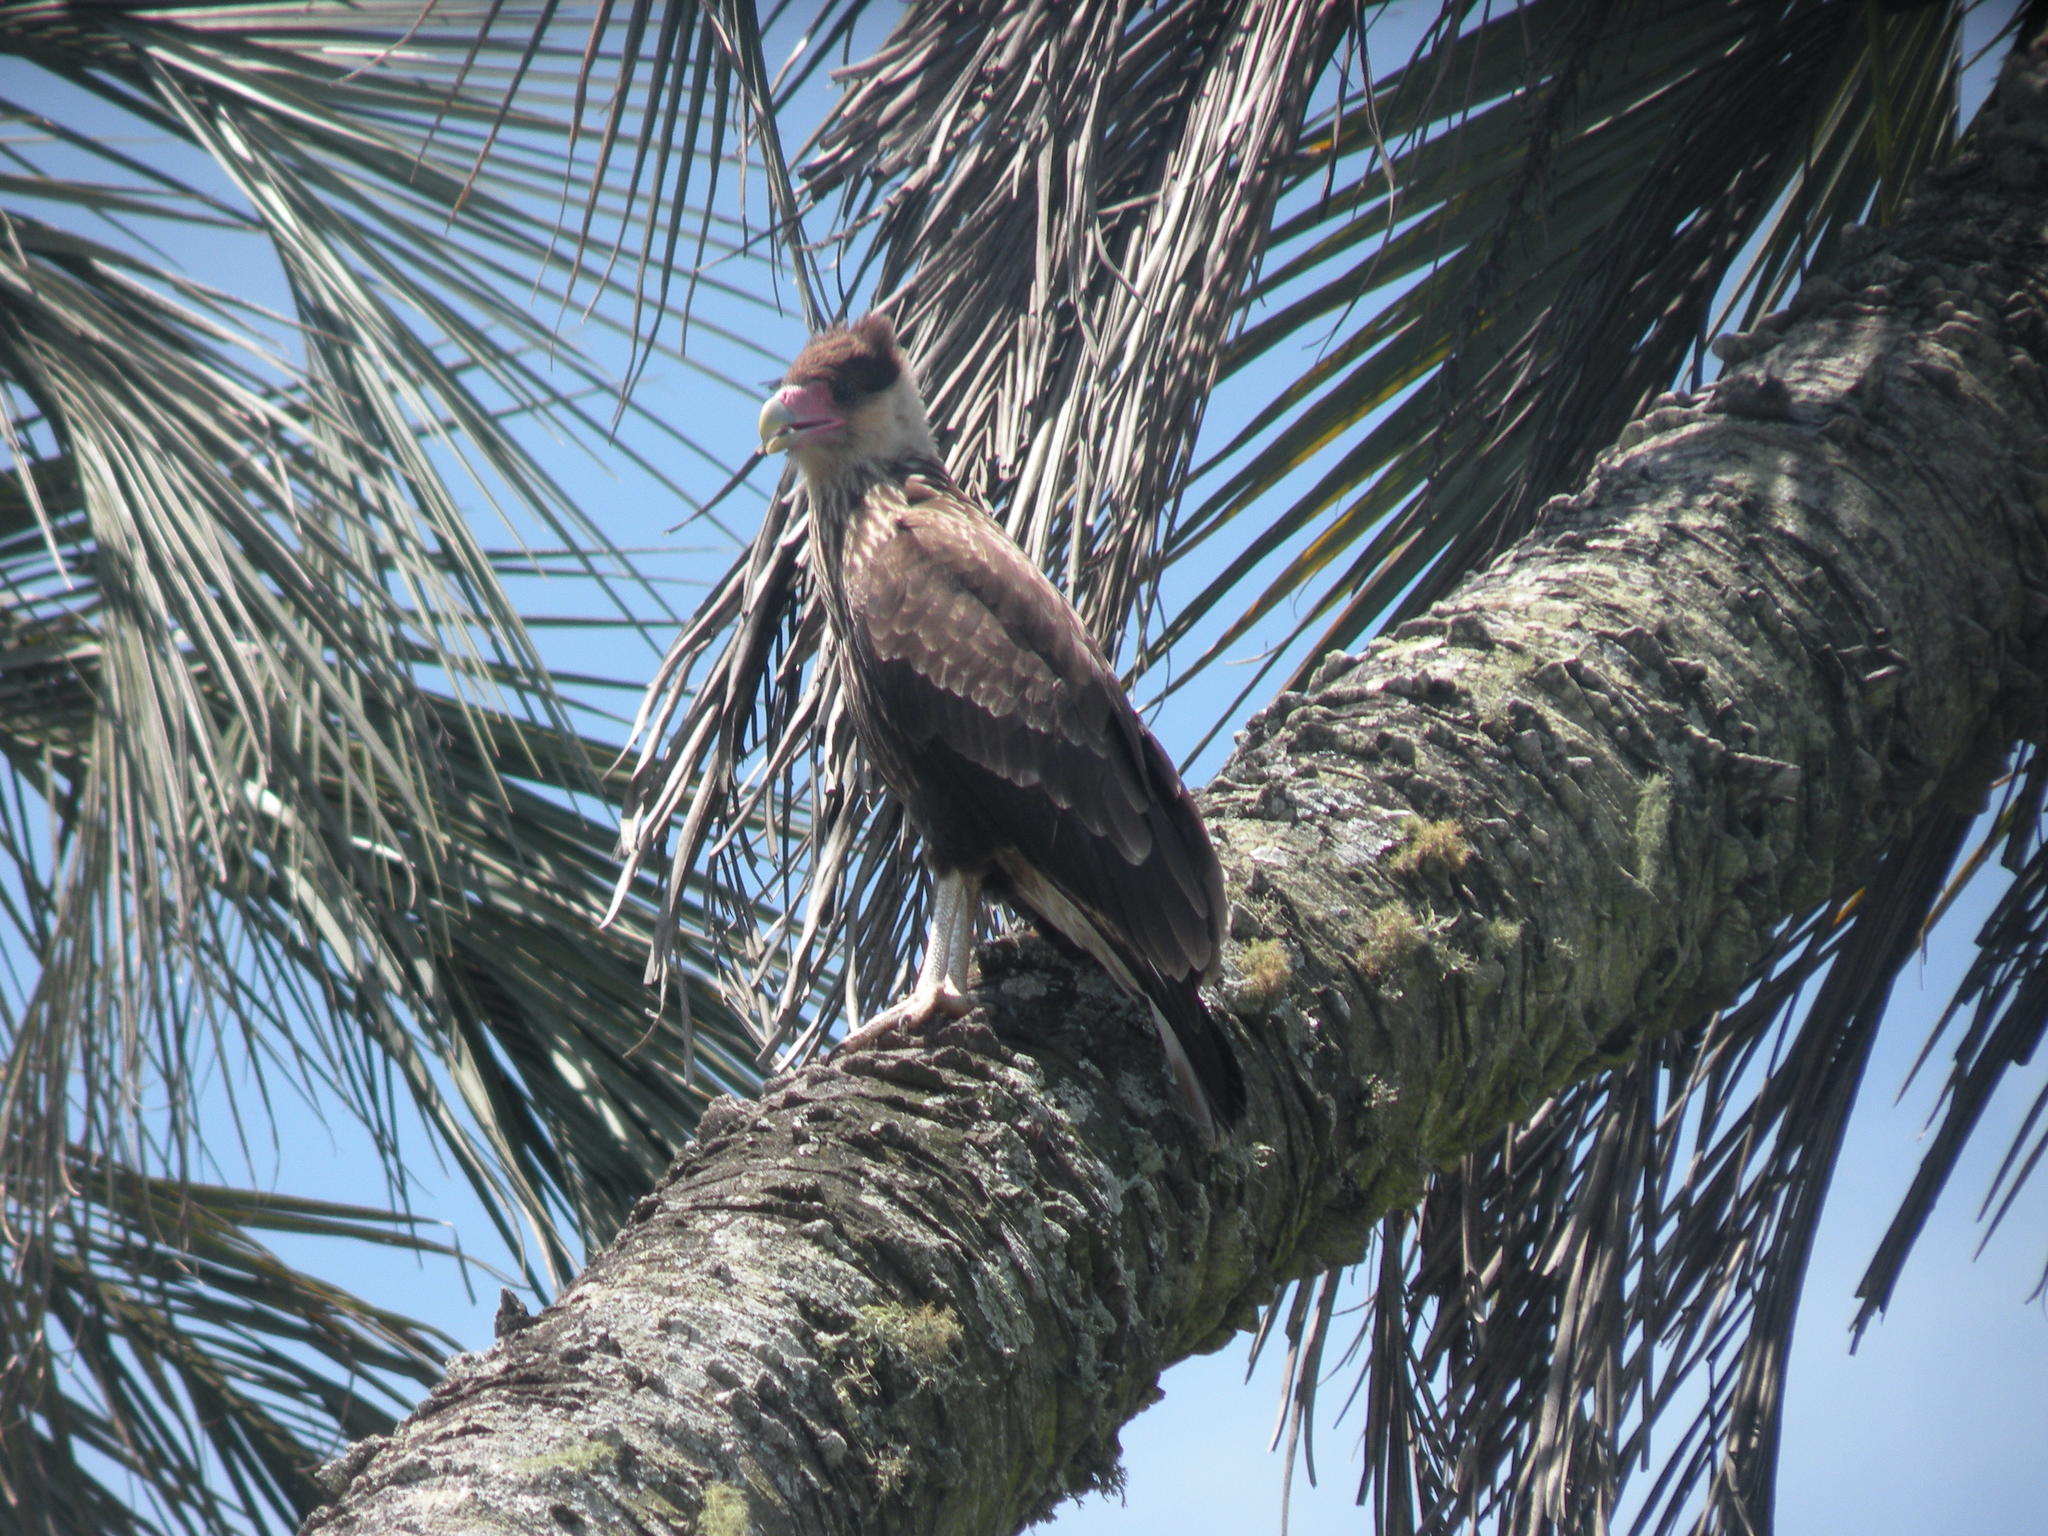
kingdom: Animalia
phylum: Chordata
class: Aves
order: Falconiformes
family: Falconidae
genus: Caracara
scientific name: Caracara plancus
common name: Southern caracara
